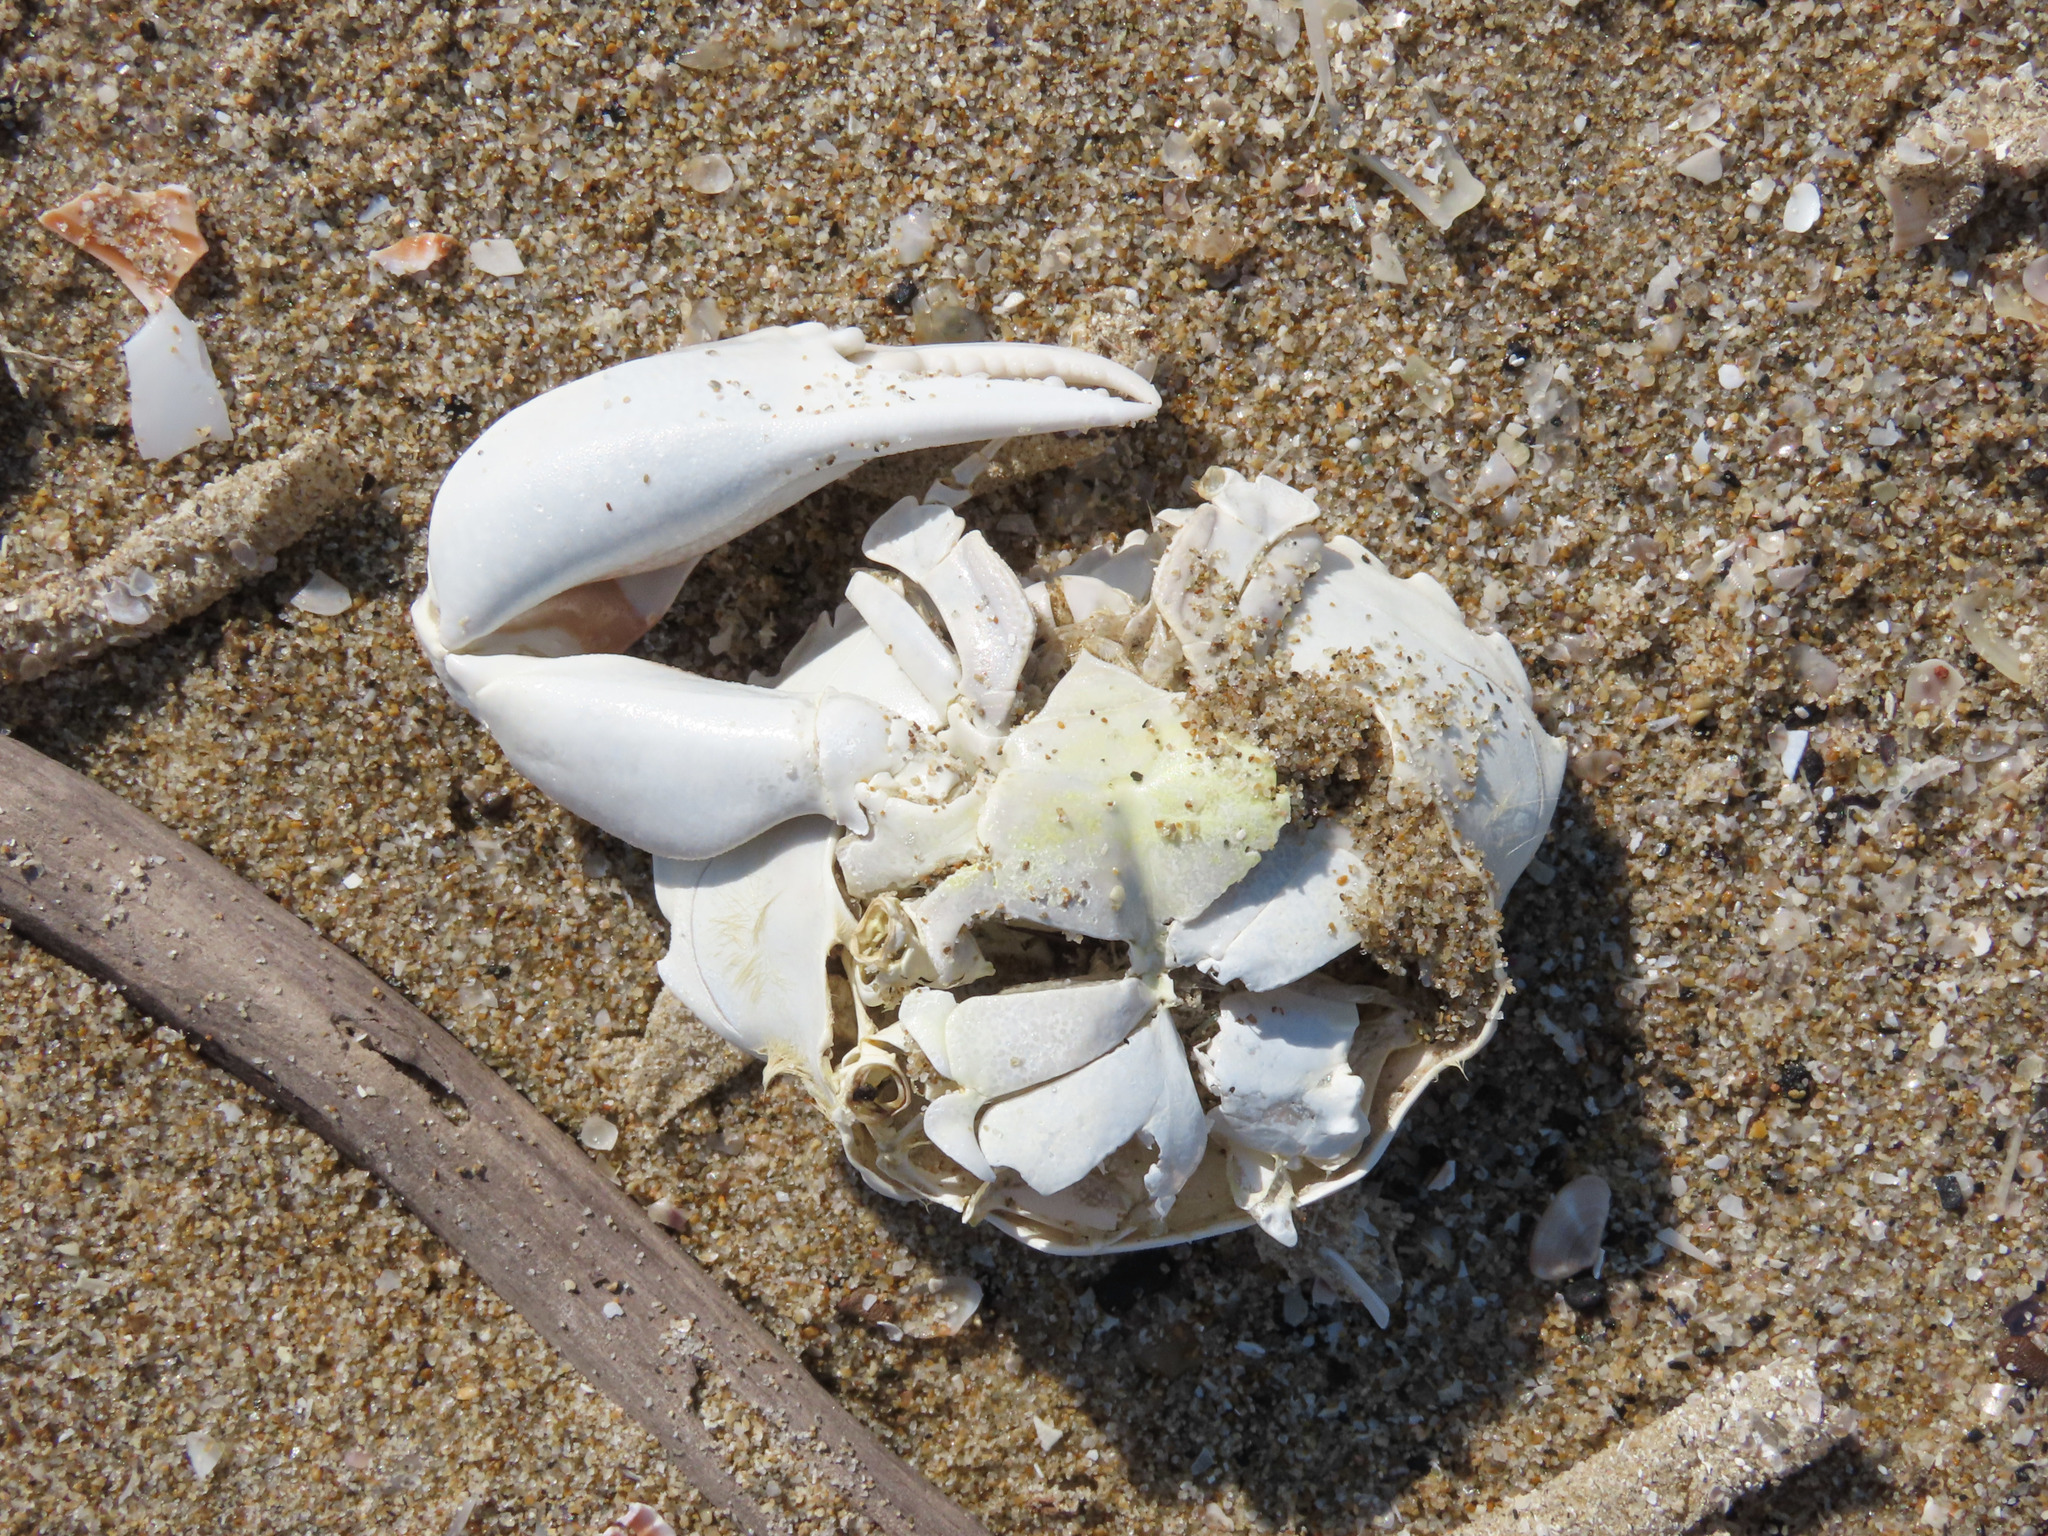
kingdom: Animalia
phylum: Arthropoda
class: Malacostraca
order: Decapoda
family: Polybiidae
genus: Liocarcinus
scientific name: Liocarcinus vernalis
